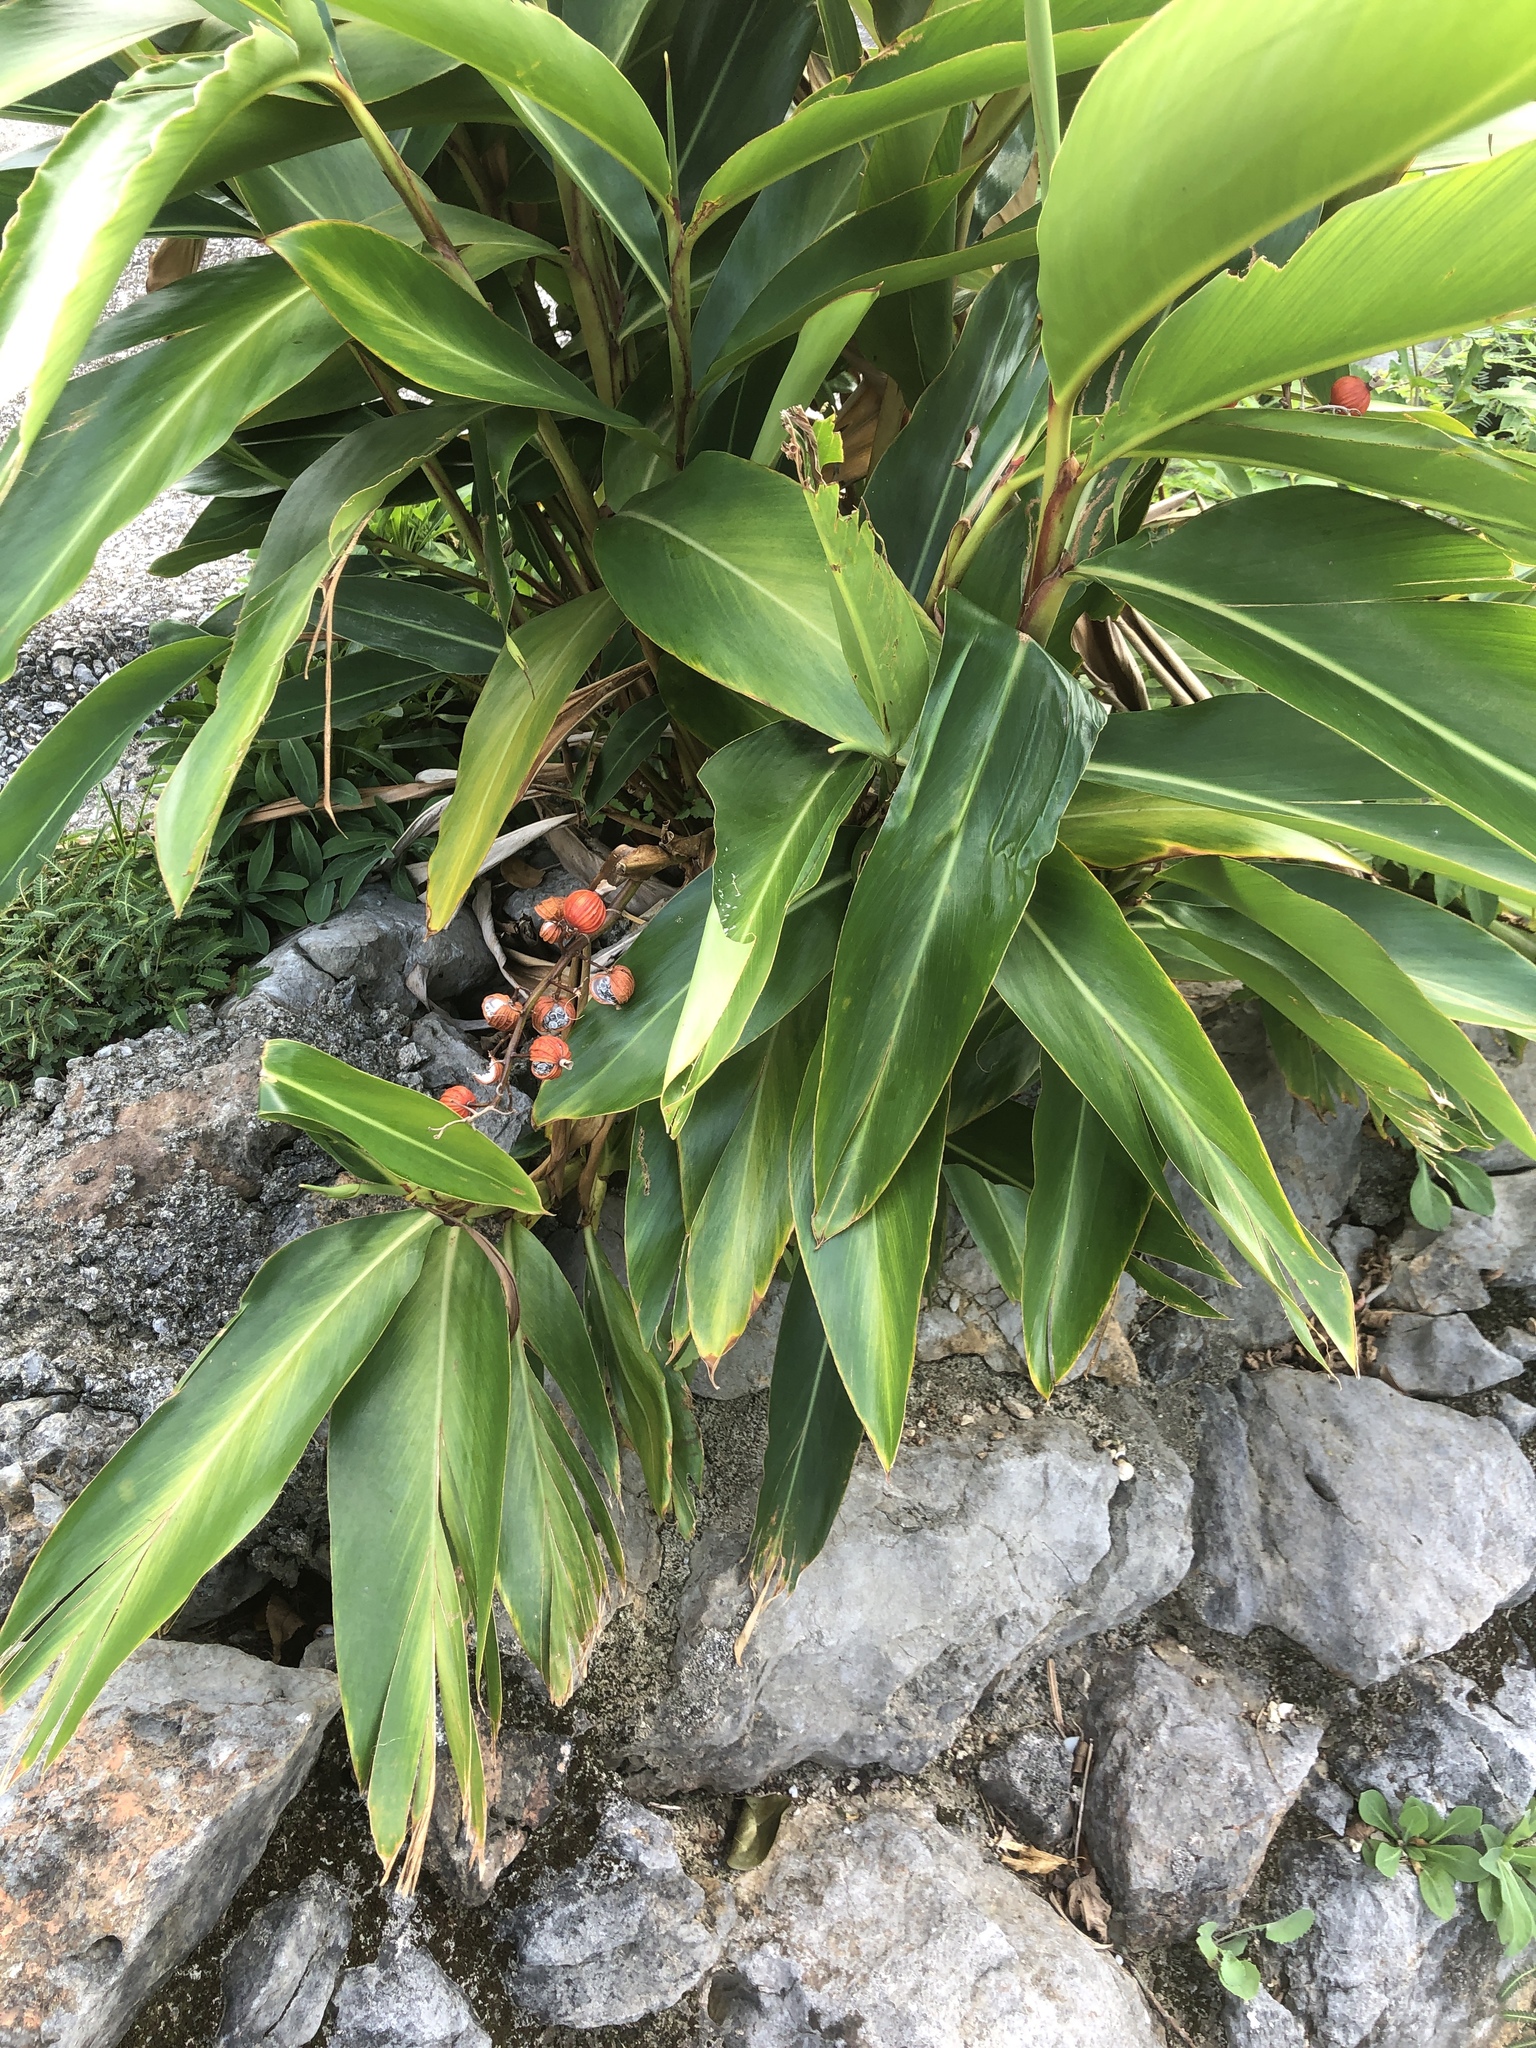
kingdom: Plantae
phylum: Tracheophyta
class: Liliopsida
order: Zingiberales
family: Zingiberaceae
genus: Alpinia
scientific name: Alpinia zerumbet
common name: Shellplant
